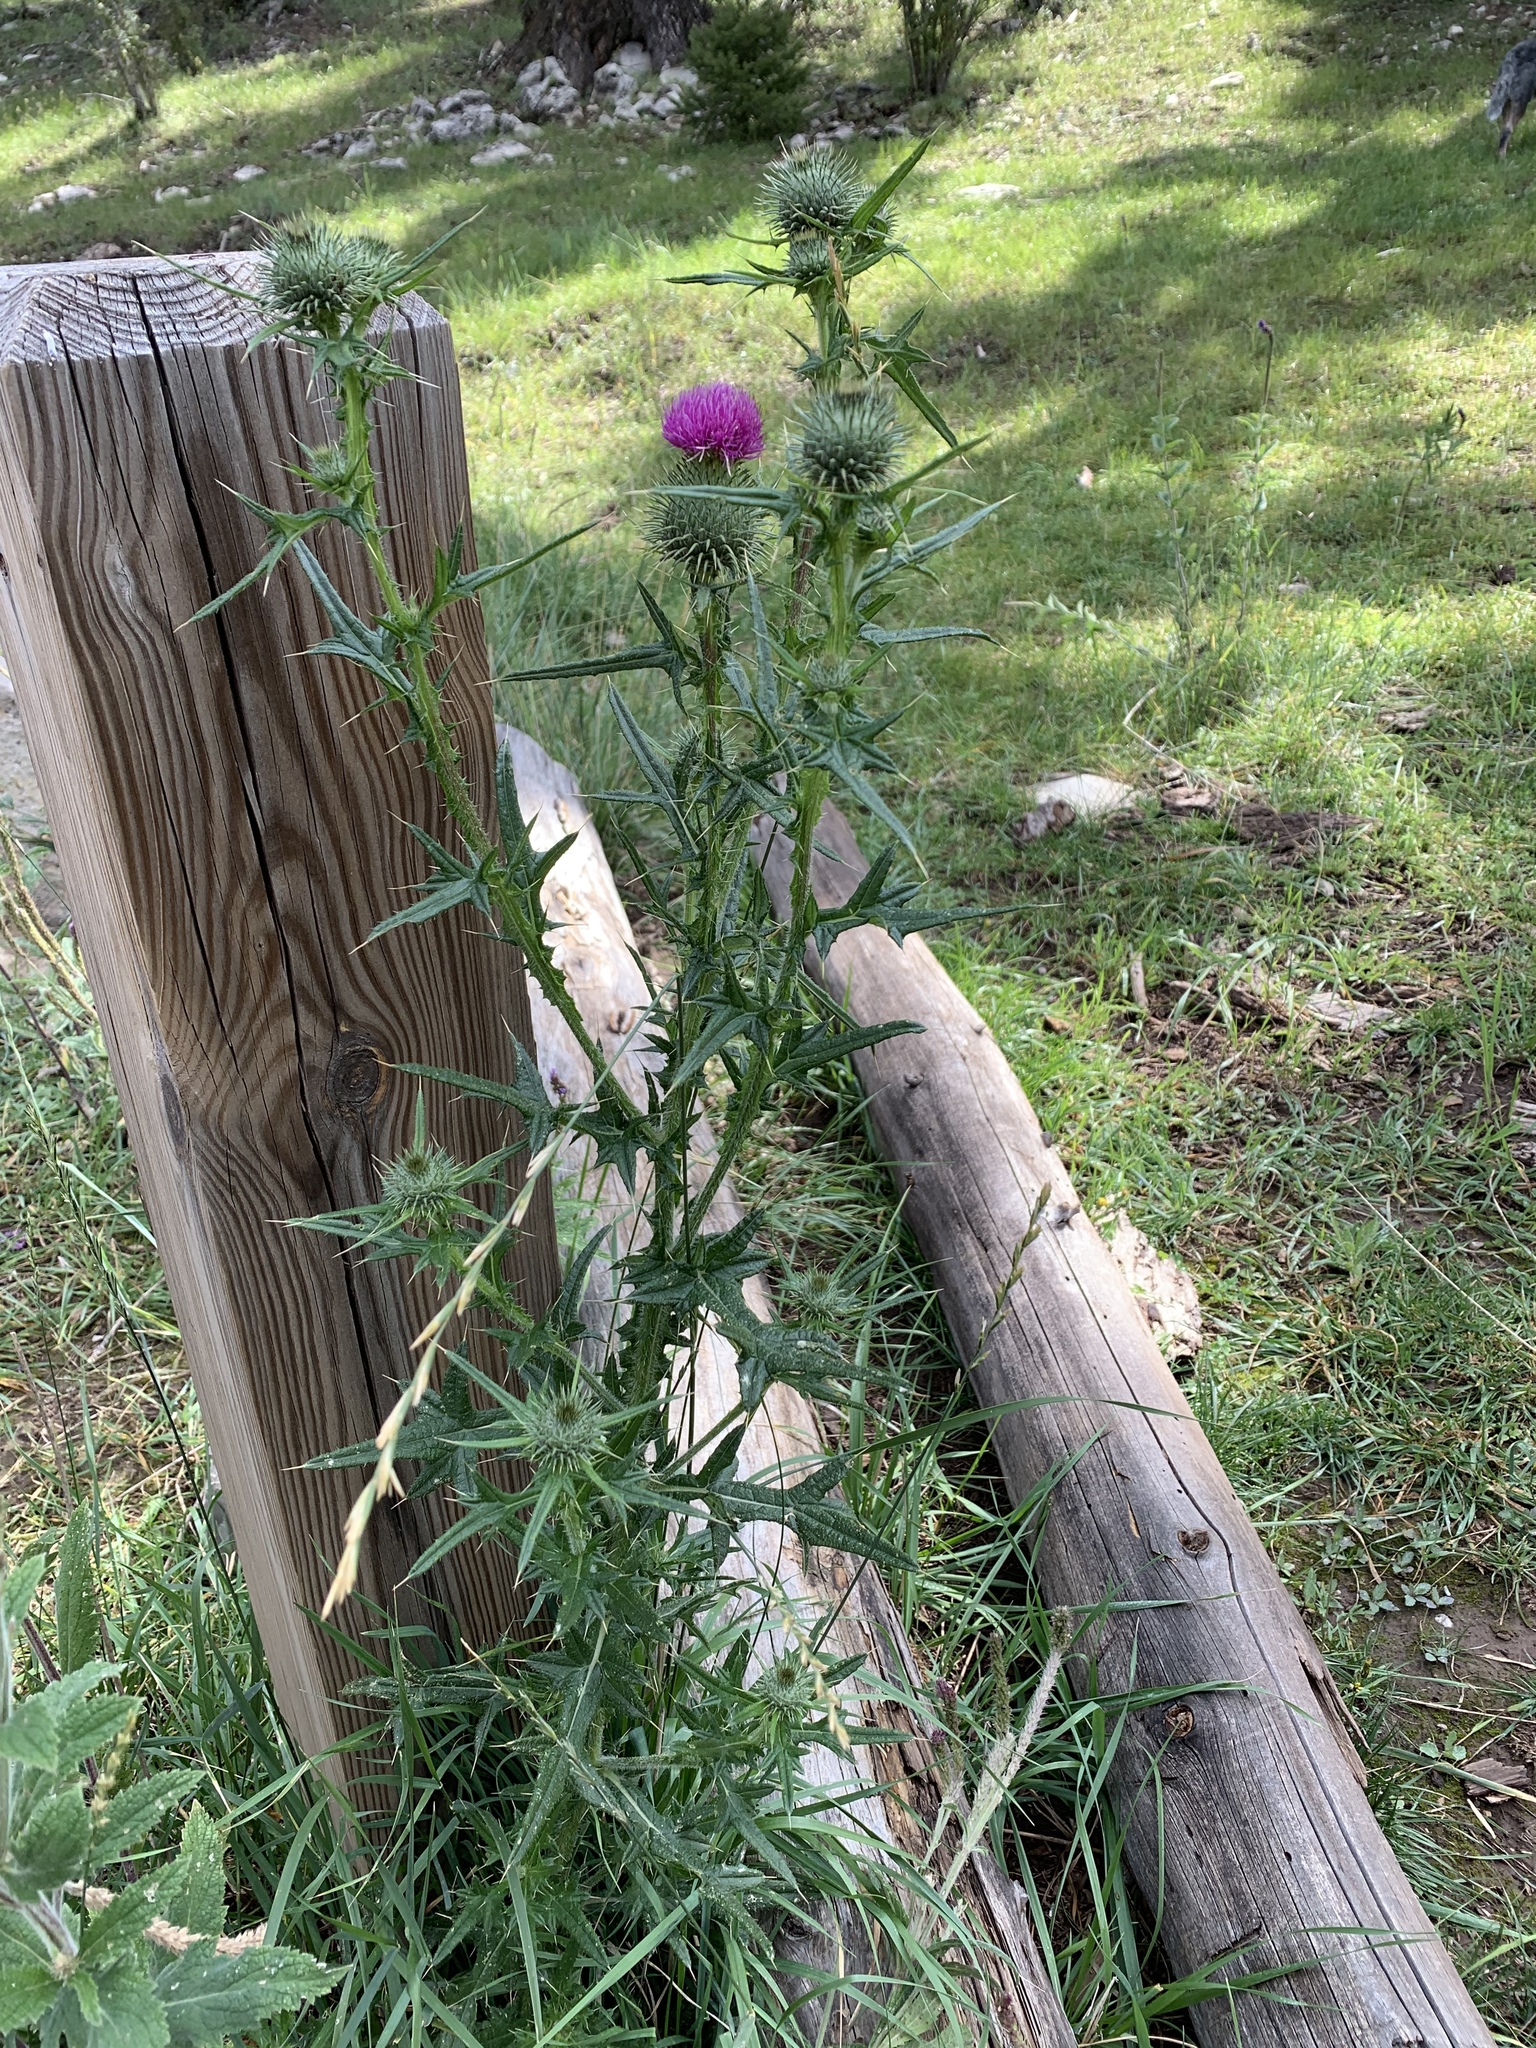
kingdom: Plantae
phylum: Tracheophyta
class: Magnoliopsida
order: Asterales
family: Asteraceae
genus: Cirsium
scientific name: Cirsium vulgare
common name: Bull thistle
